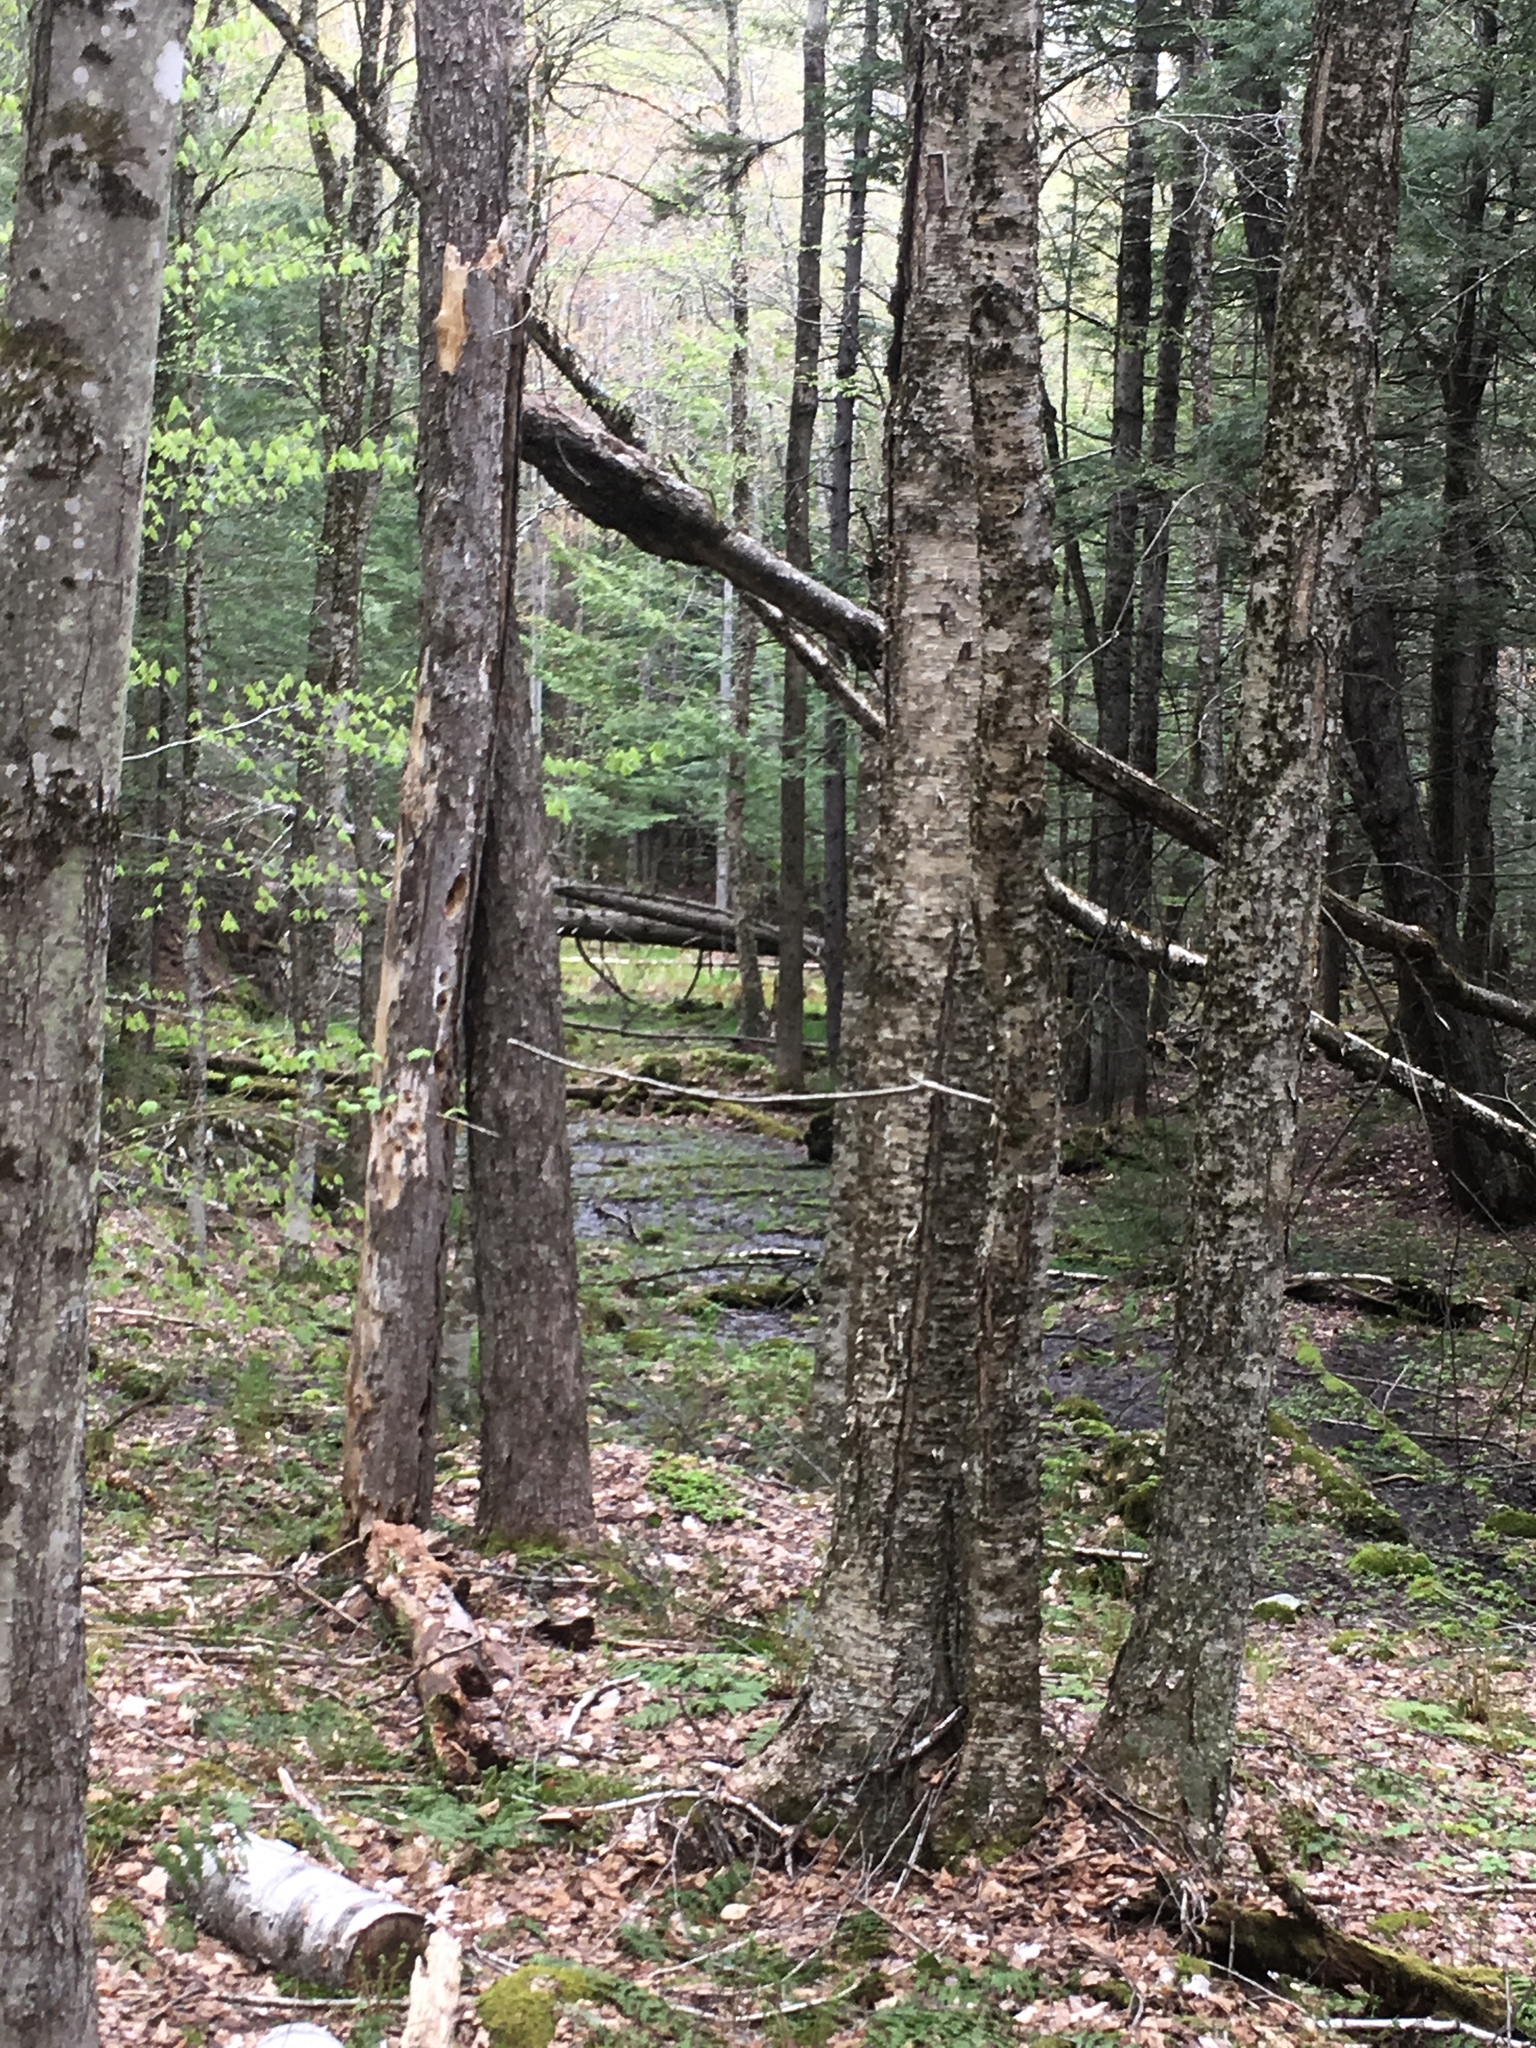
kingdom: Plantae
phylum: Tracheophyta
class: Magnoliopsida
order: Fagales
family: Betulaceae
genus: Betula
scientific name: Betula alleghaniensis
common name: Yellow birch
